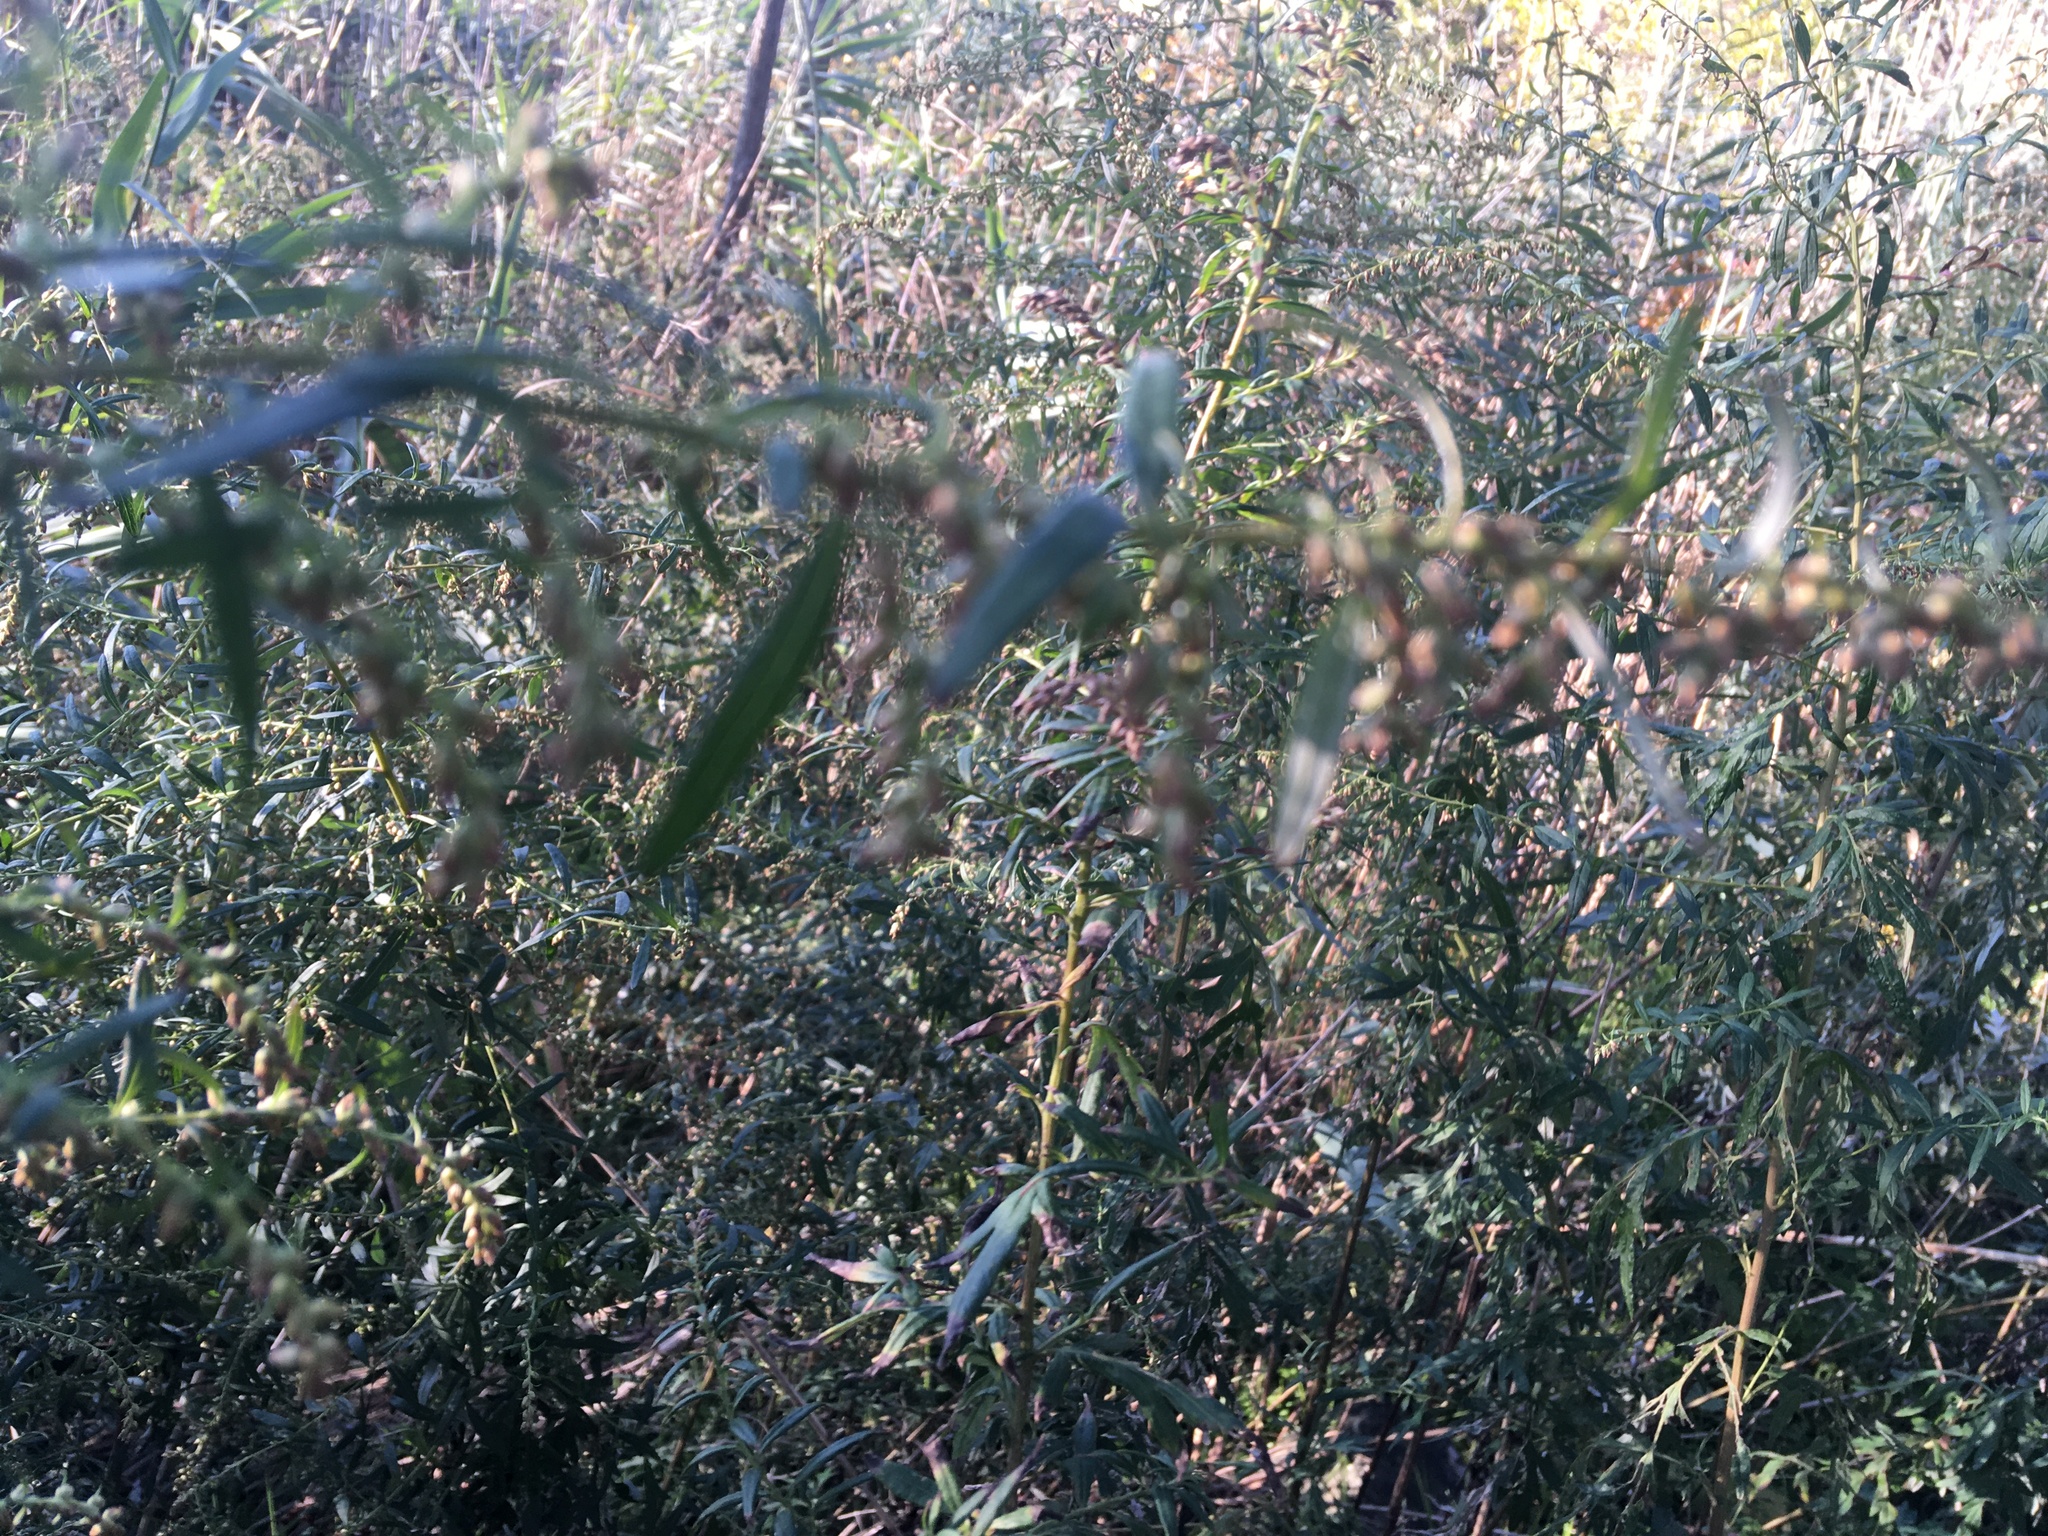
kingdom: Plantae
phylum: Tracheophyta
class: Magnoliopsida
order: Asterales
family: Asteraceae
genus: Artemisia
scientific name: Artemisia vulgaris
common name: Mugwort
